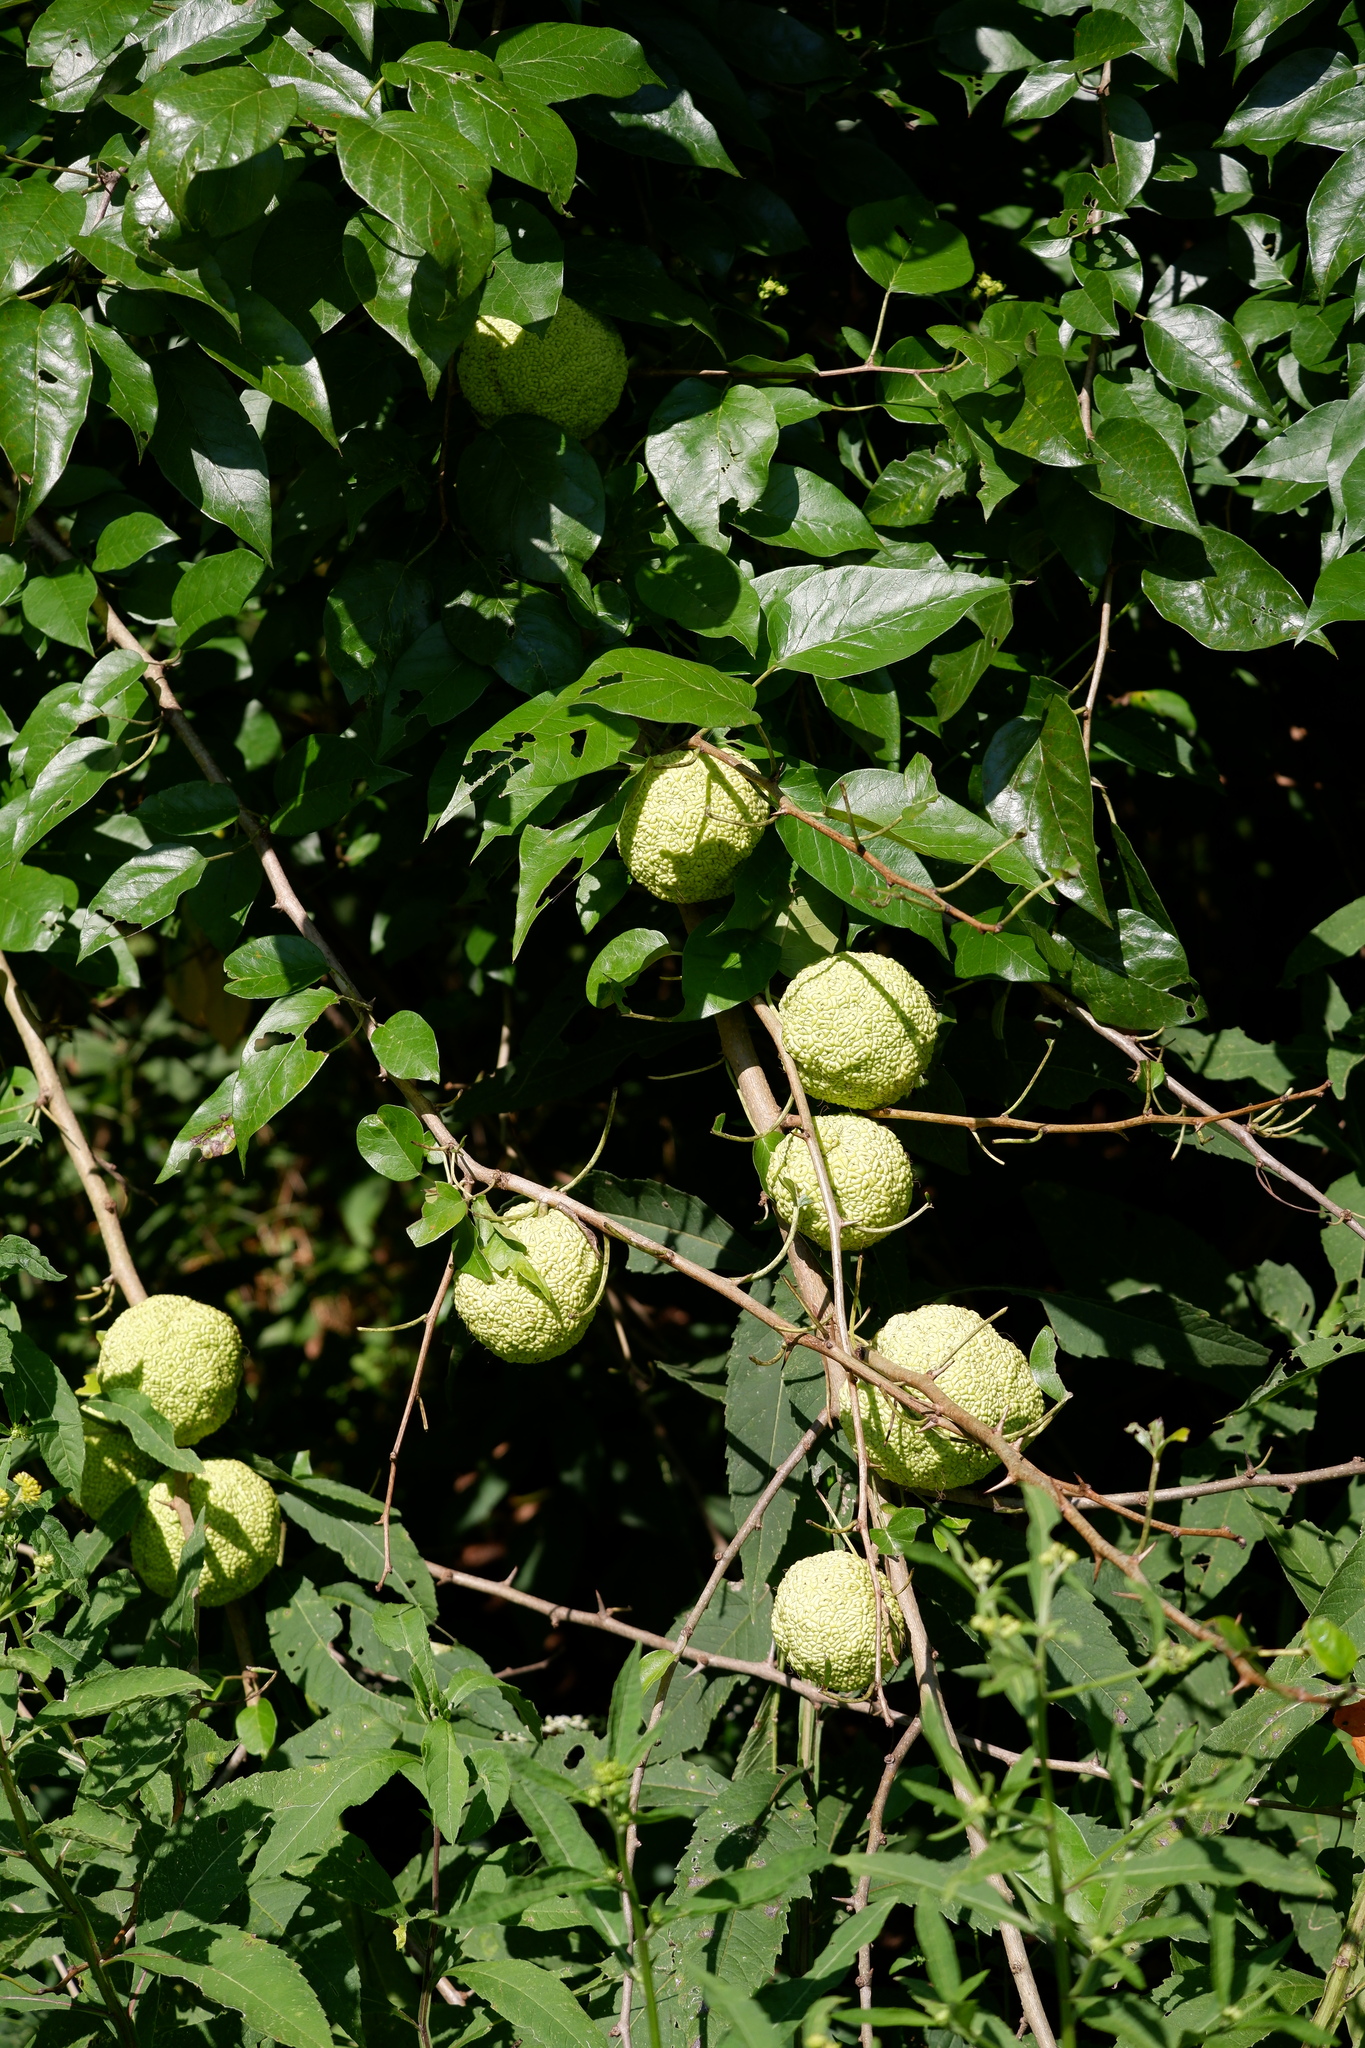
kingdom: Plantae
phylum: Tracheophyta
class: Magnoliopsida
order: Rosales
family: Moraceae
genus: Maclura
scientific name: Maclura pomifera
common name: Osage-orange
